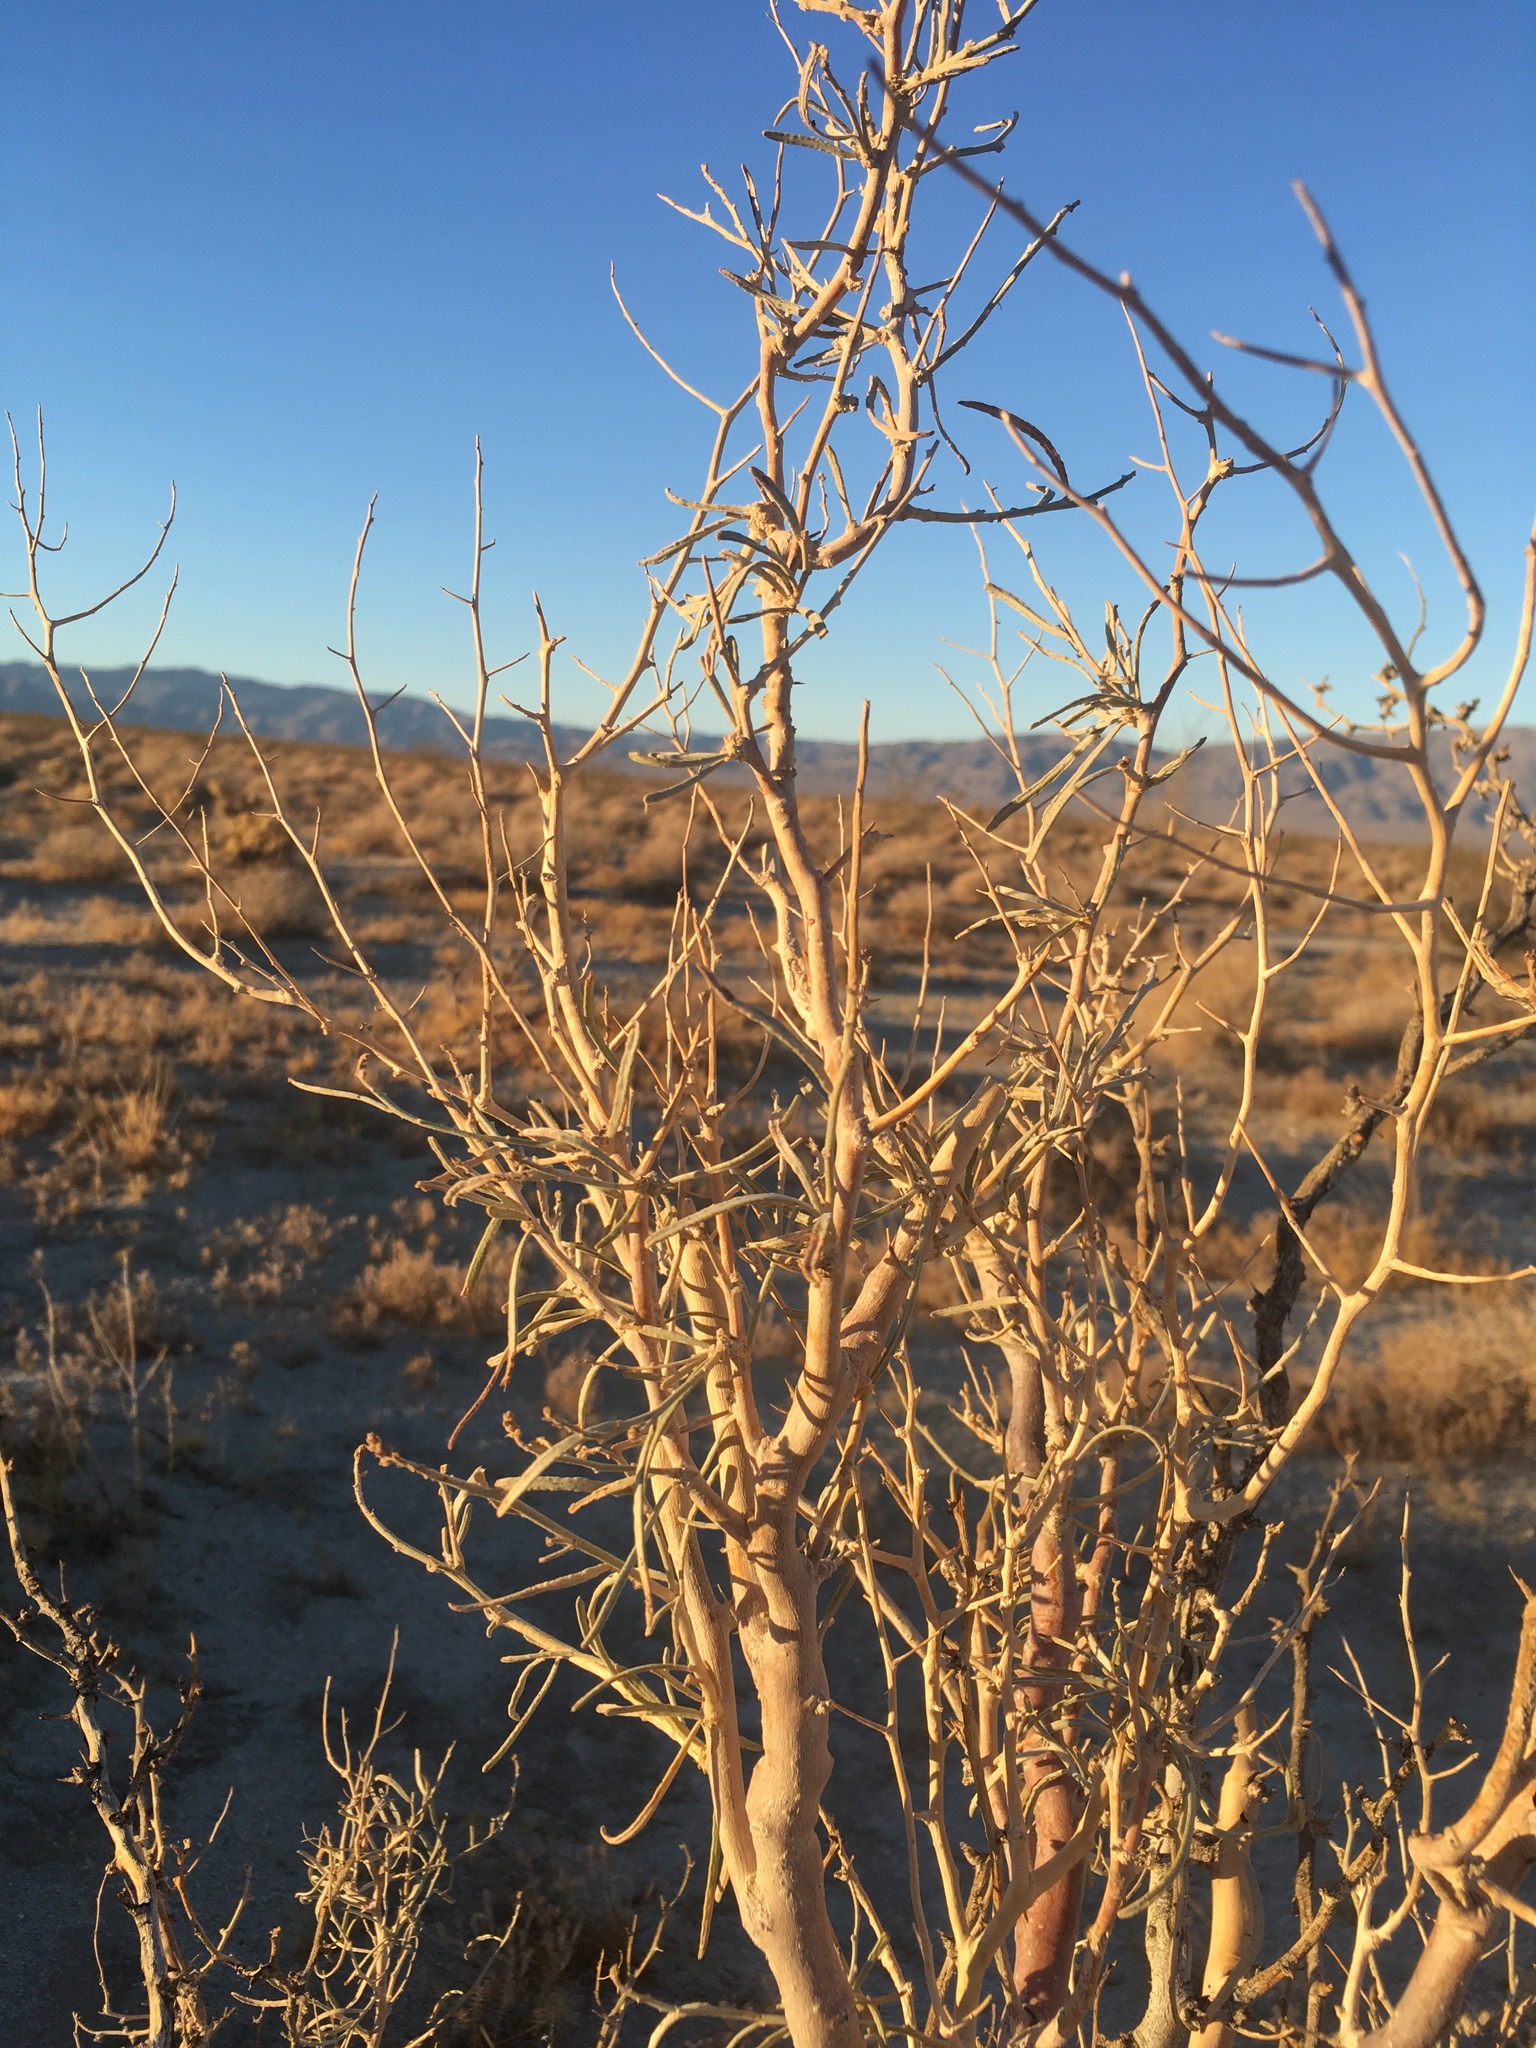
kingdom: Plantae
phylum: Tracheophyta
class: Magnoliopsida
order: Fabales
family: Fabaceae
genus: Psorothamnus
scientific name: Psorothamnus schottii
